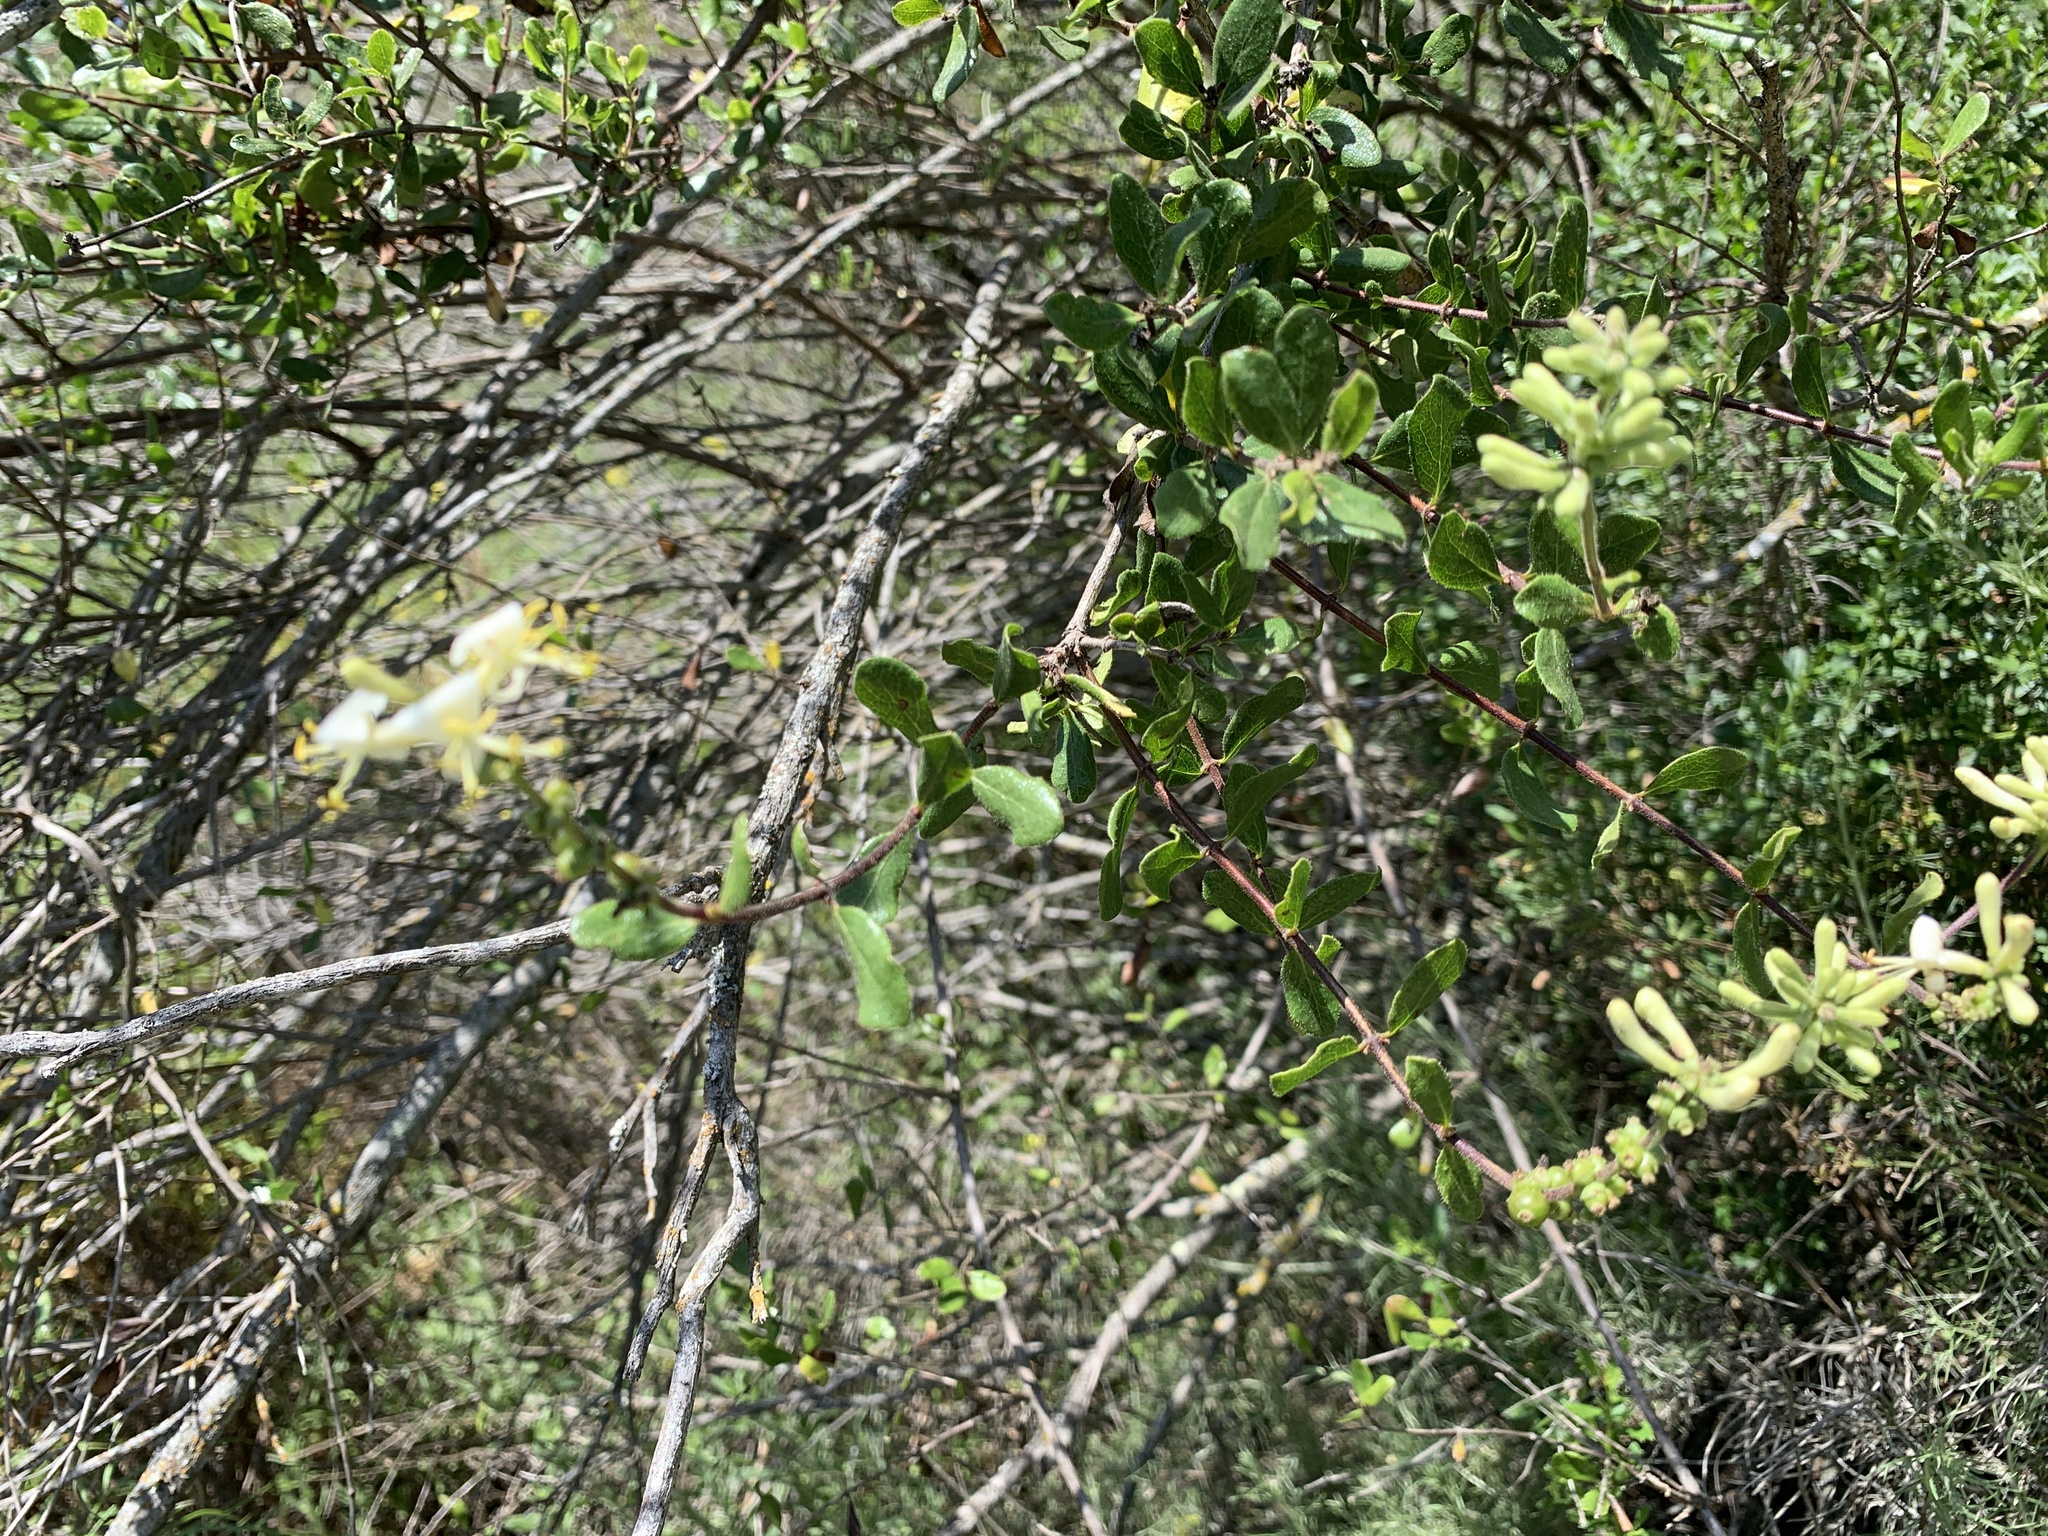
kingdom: Plantae
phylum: Tracheophyta
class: Magnoliopsida
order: Dipsacales
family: Caprifoliaceae
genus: Lonicera
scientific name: Lonicera subspicata
